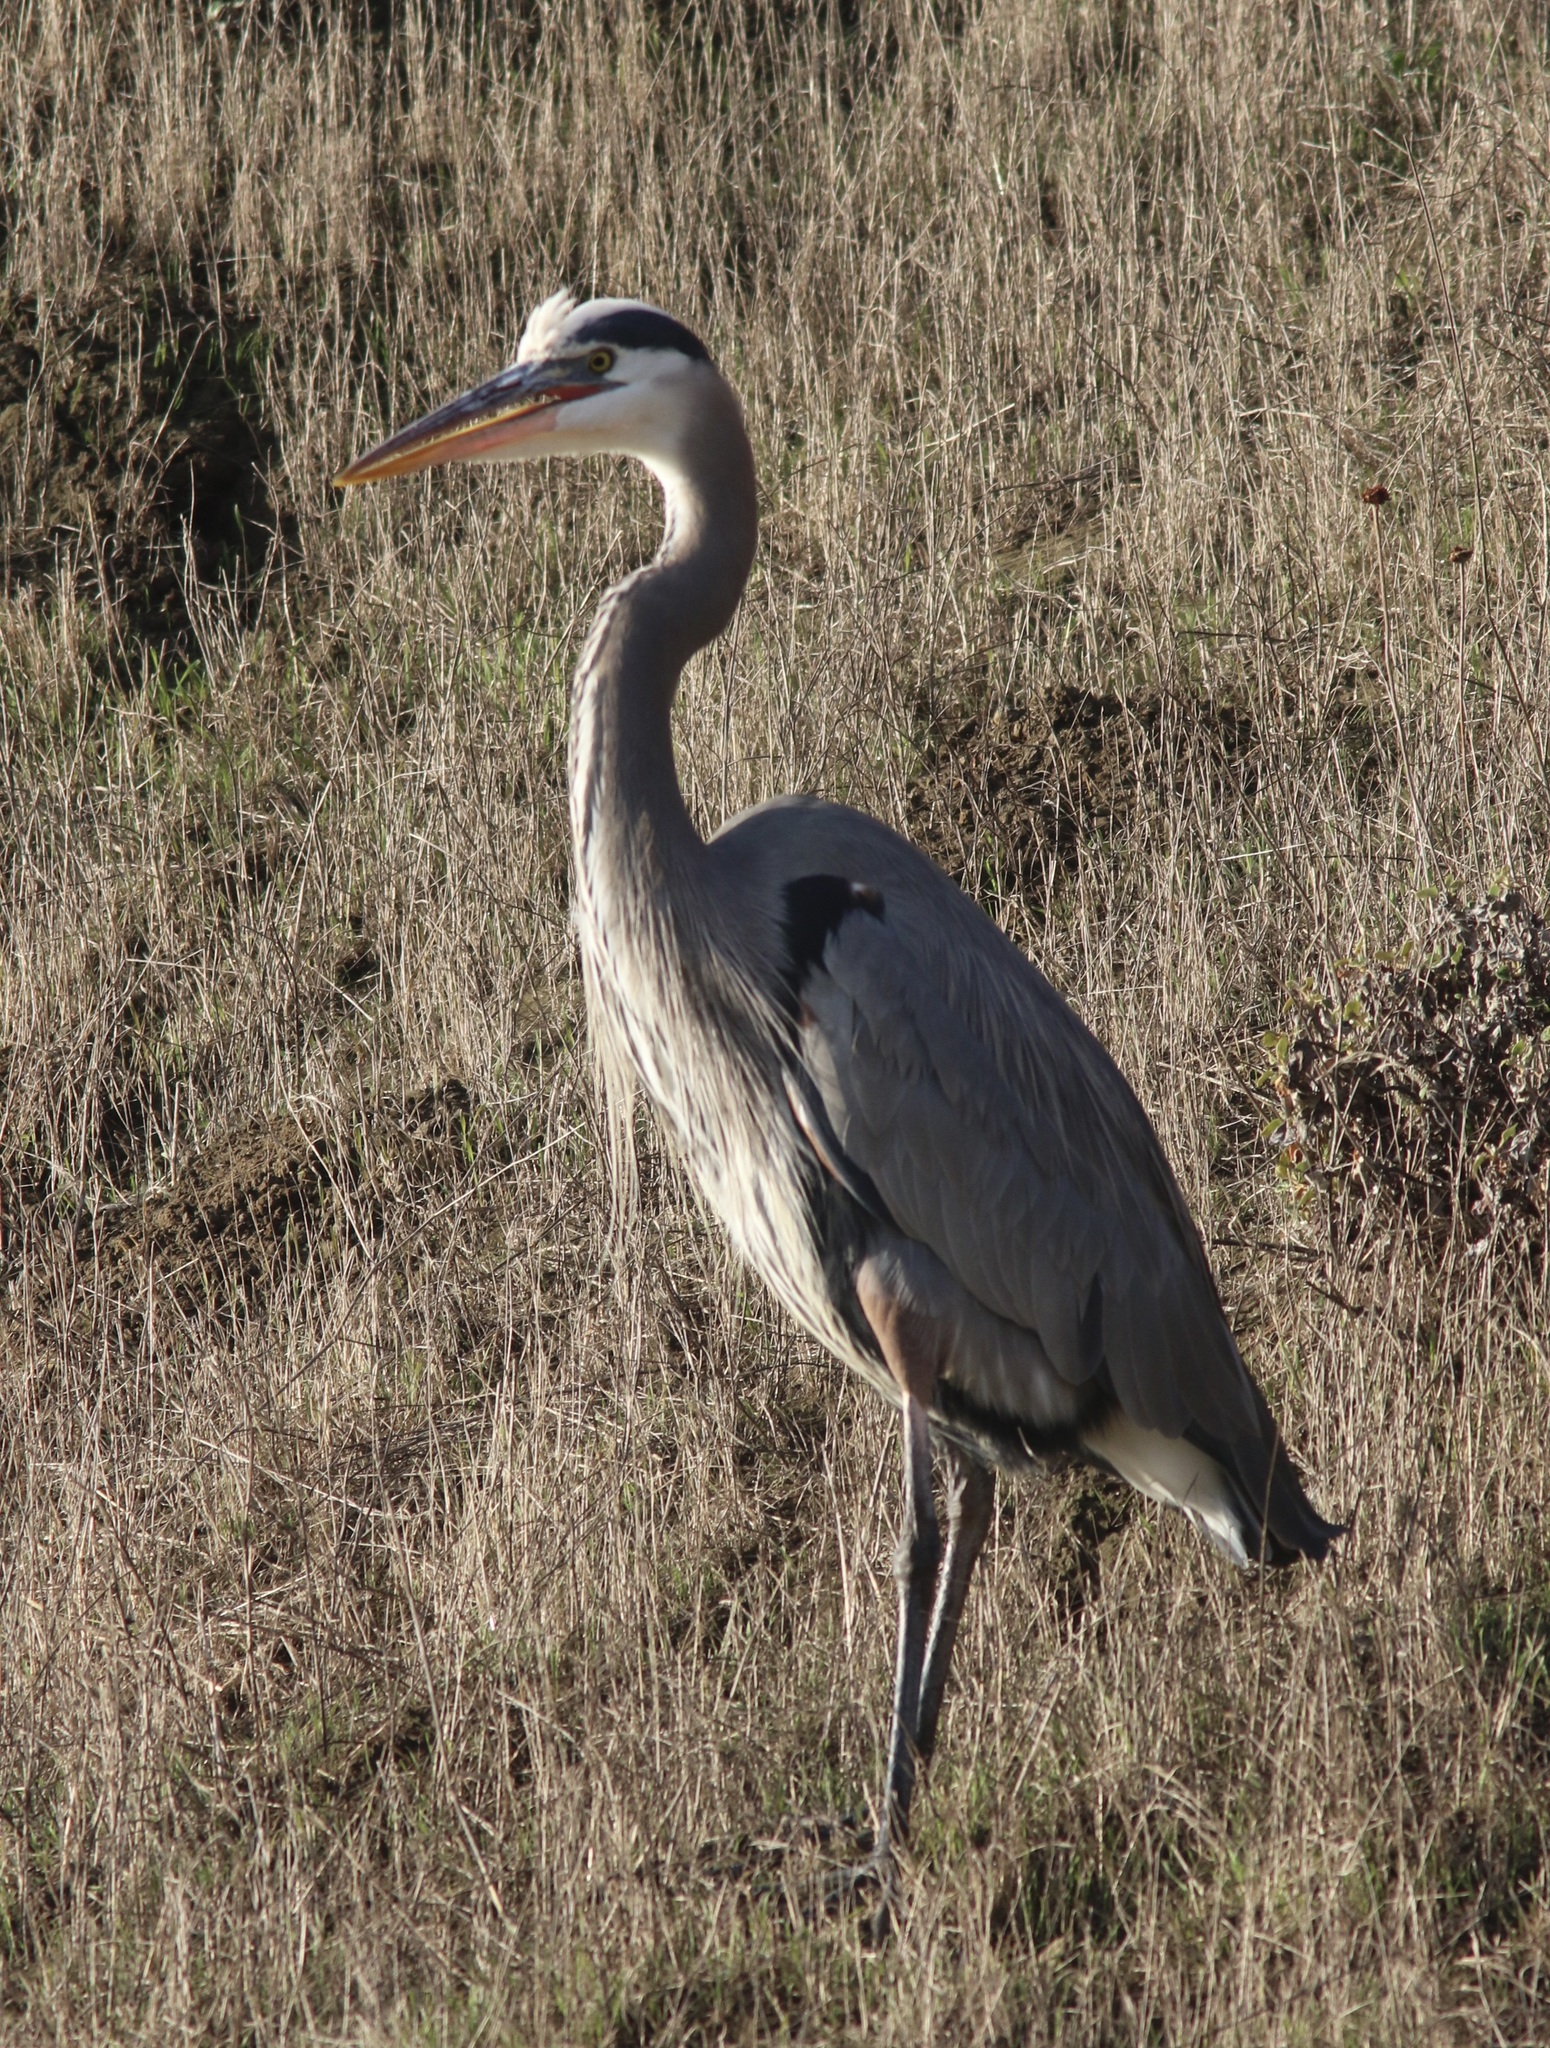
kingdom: Animalia
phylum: Chordata
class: Aves
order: Pelecaniformes
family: Ardeidae
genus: Ardea
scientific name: Ardea herodias
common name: Great blue heron
